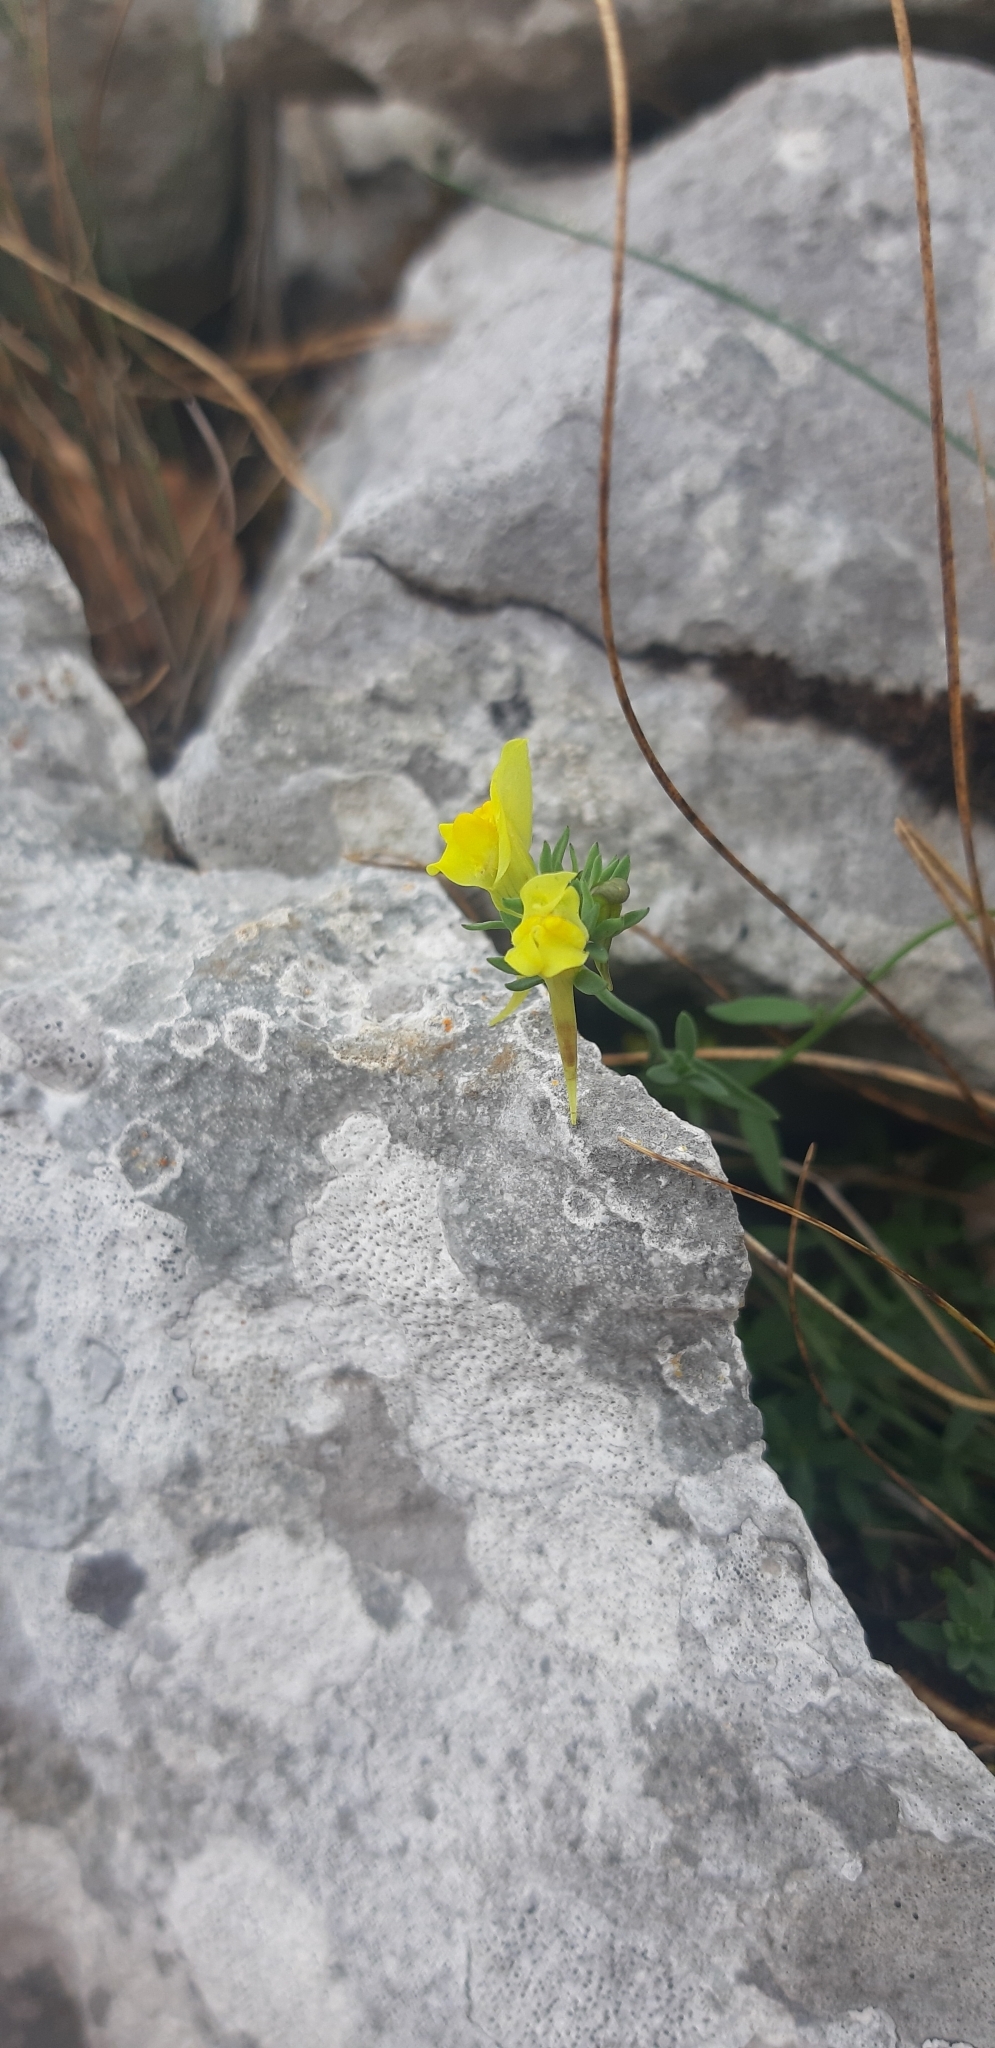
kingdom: Plantae
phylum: Tracheophyta
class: Magnoliopsida
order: Lamiales
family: Plantaginaceae
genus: Linaria
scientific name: Linaria propinqua
